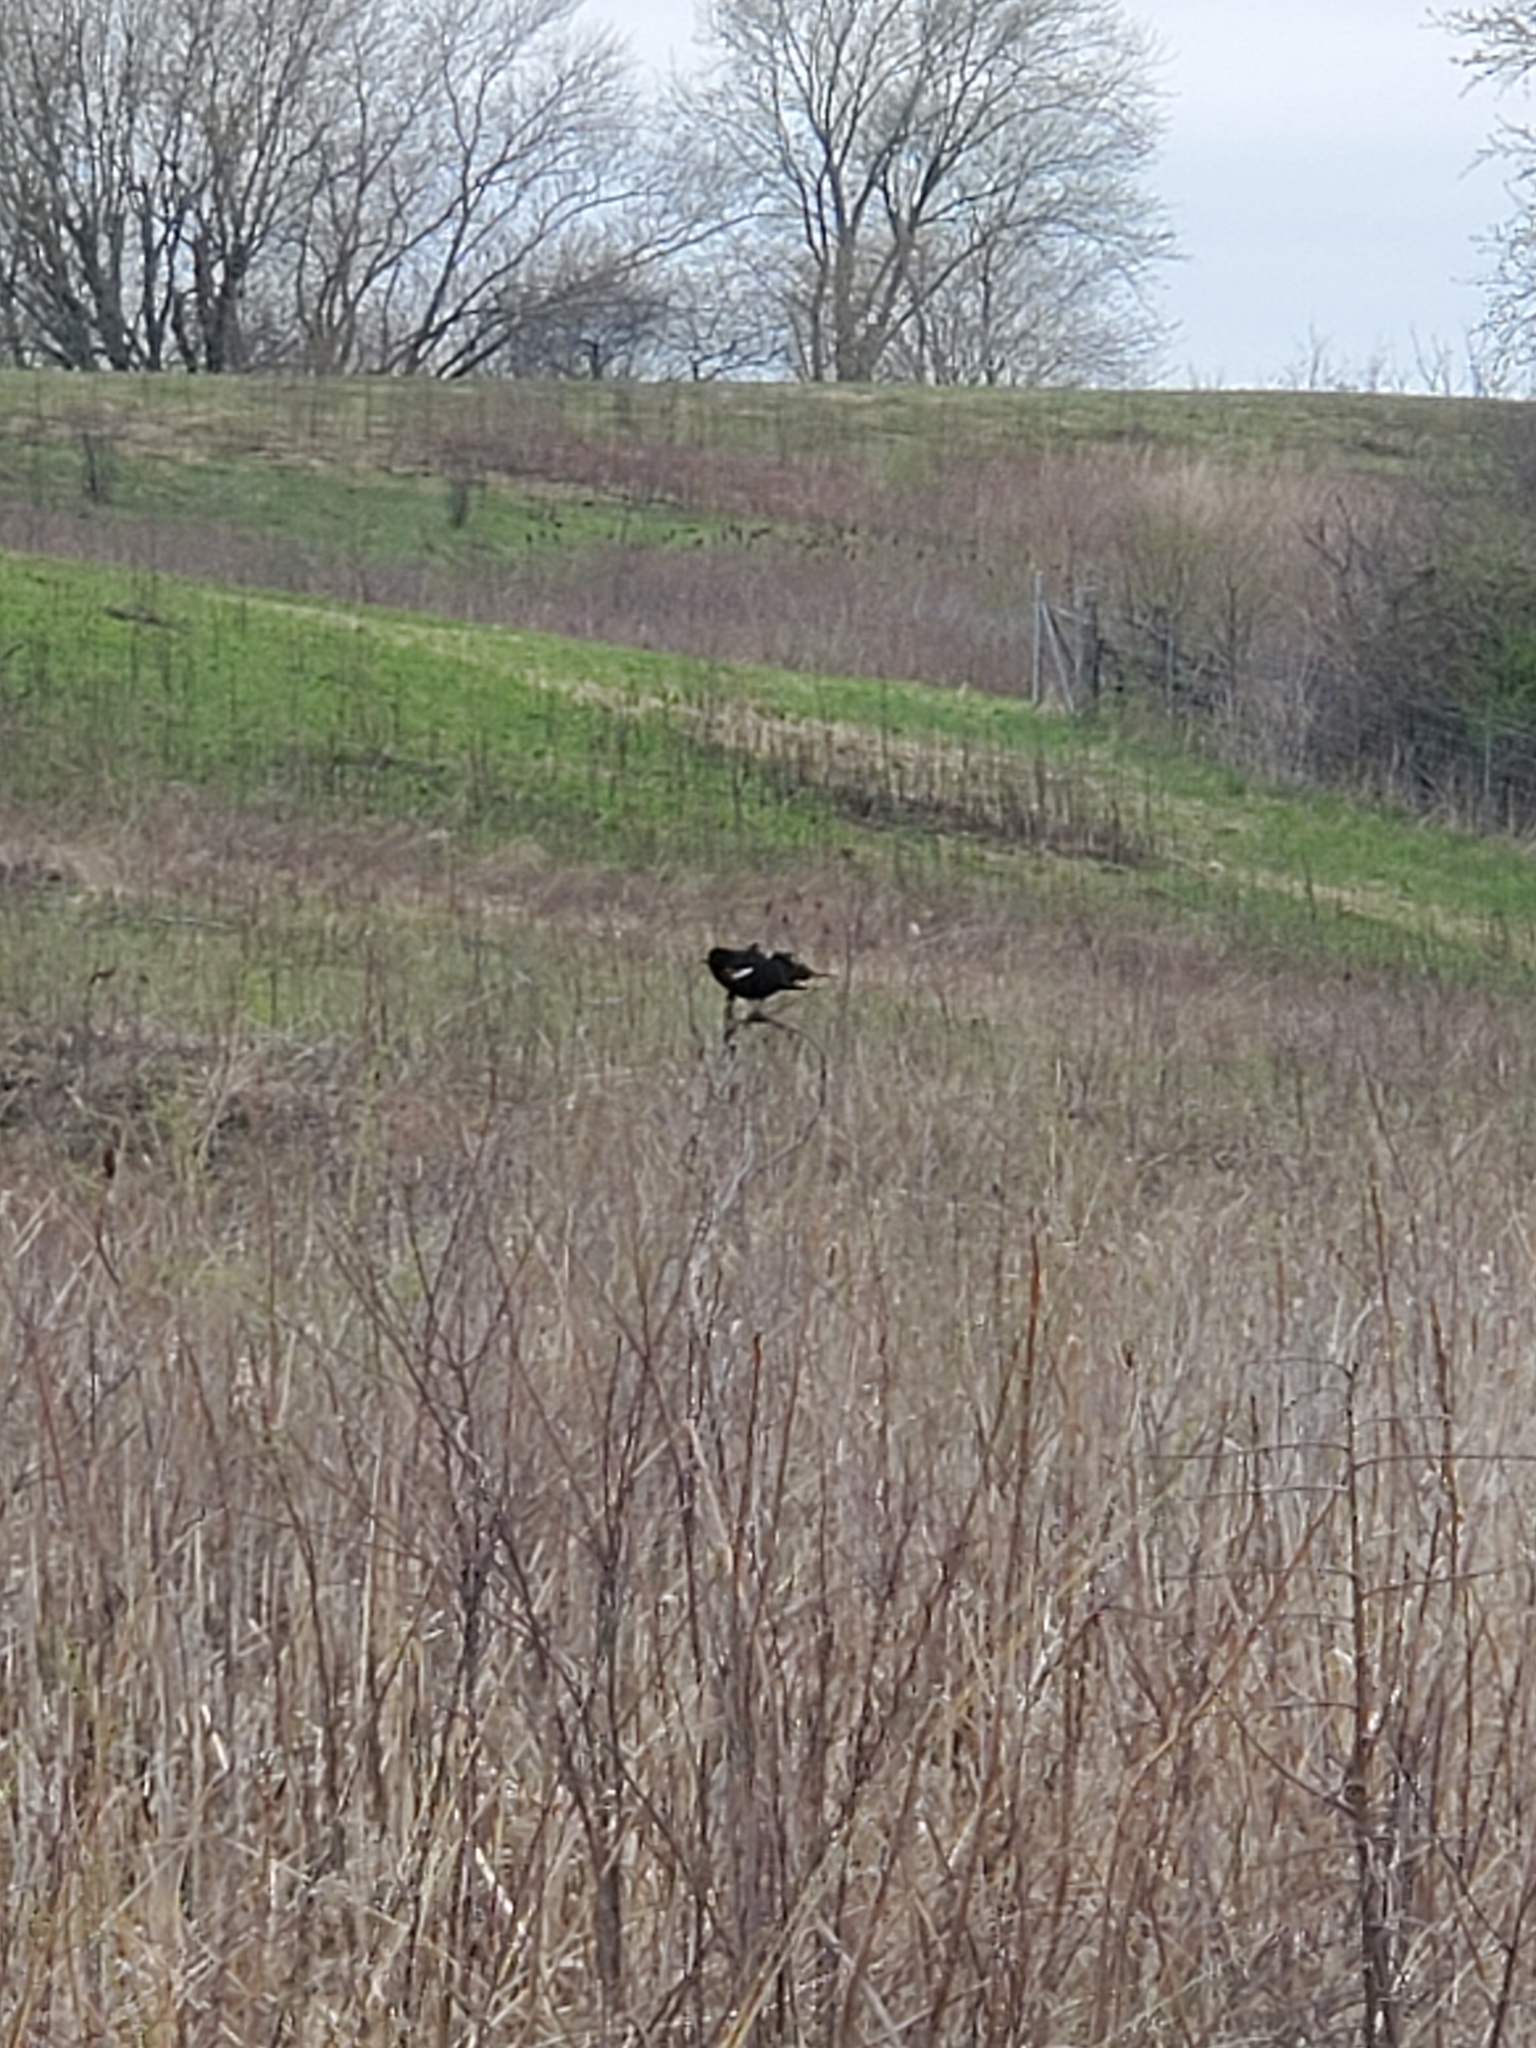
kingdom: Animalia
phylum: Chordata
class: Aves
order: Passeriformes
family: Icteridae
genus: Agelaius
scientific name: Agelaius phoeniceus
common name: Red-winged blackbird
